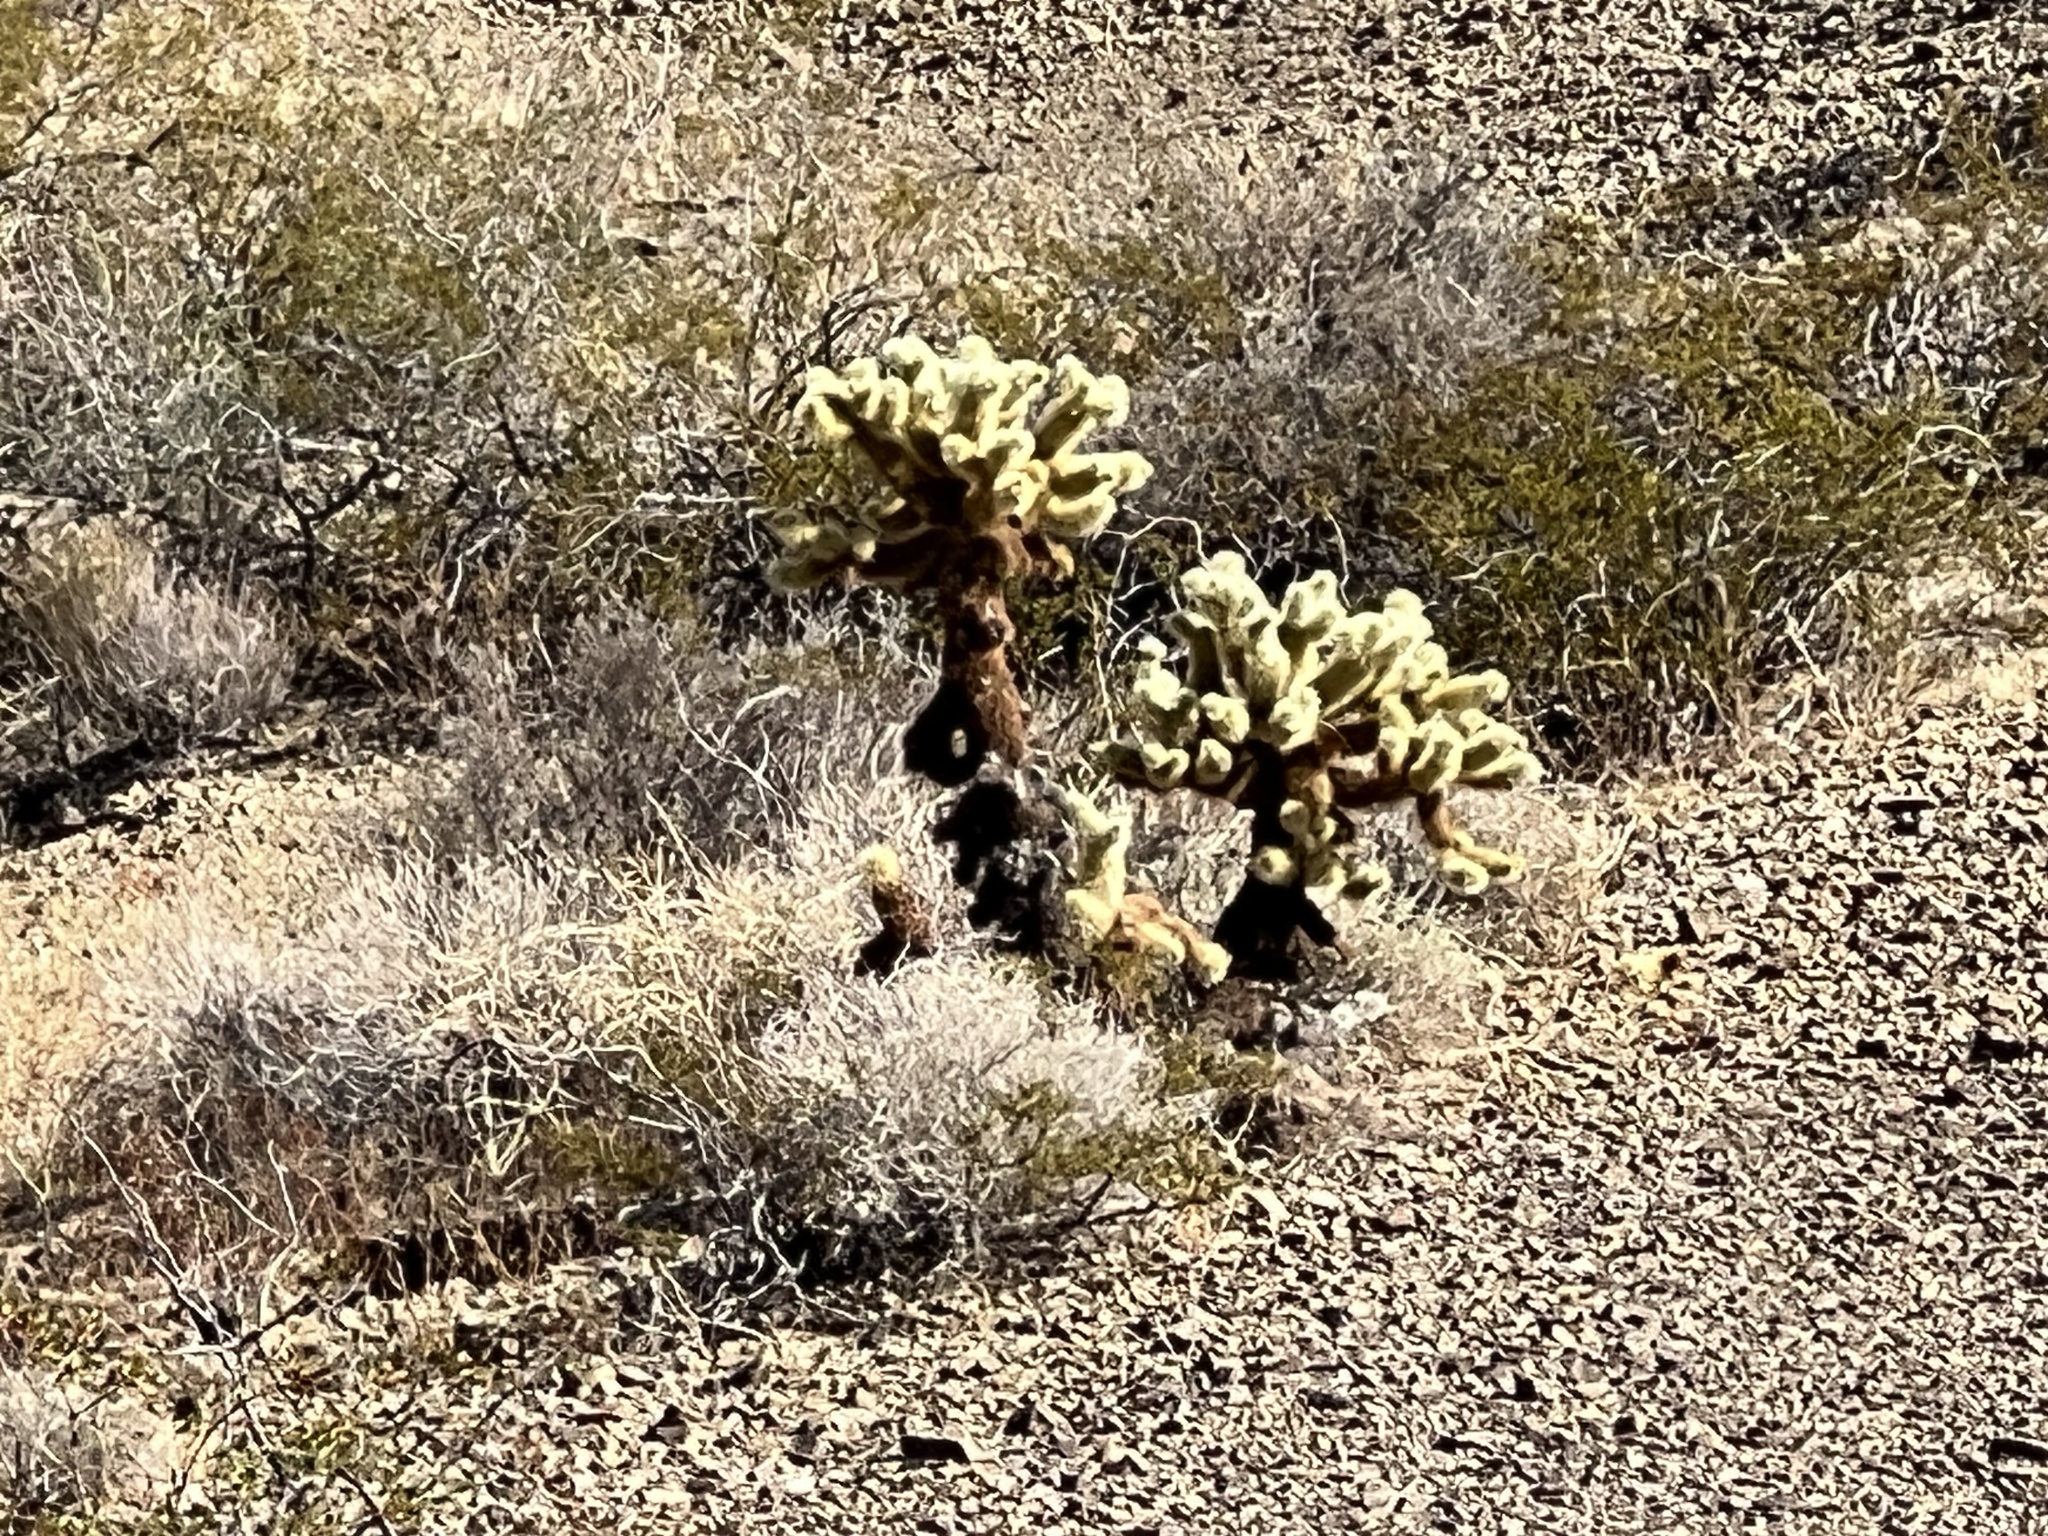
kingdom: Plantae
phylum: Tracheophyta
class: Magnoliopsida
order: Caryophyllales
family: Cactaceae
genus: Cylindropuntia
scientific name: Cylindropuntia fosbergii
